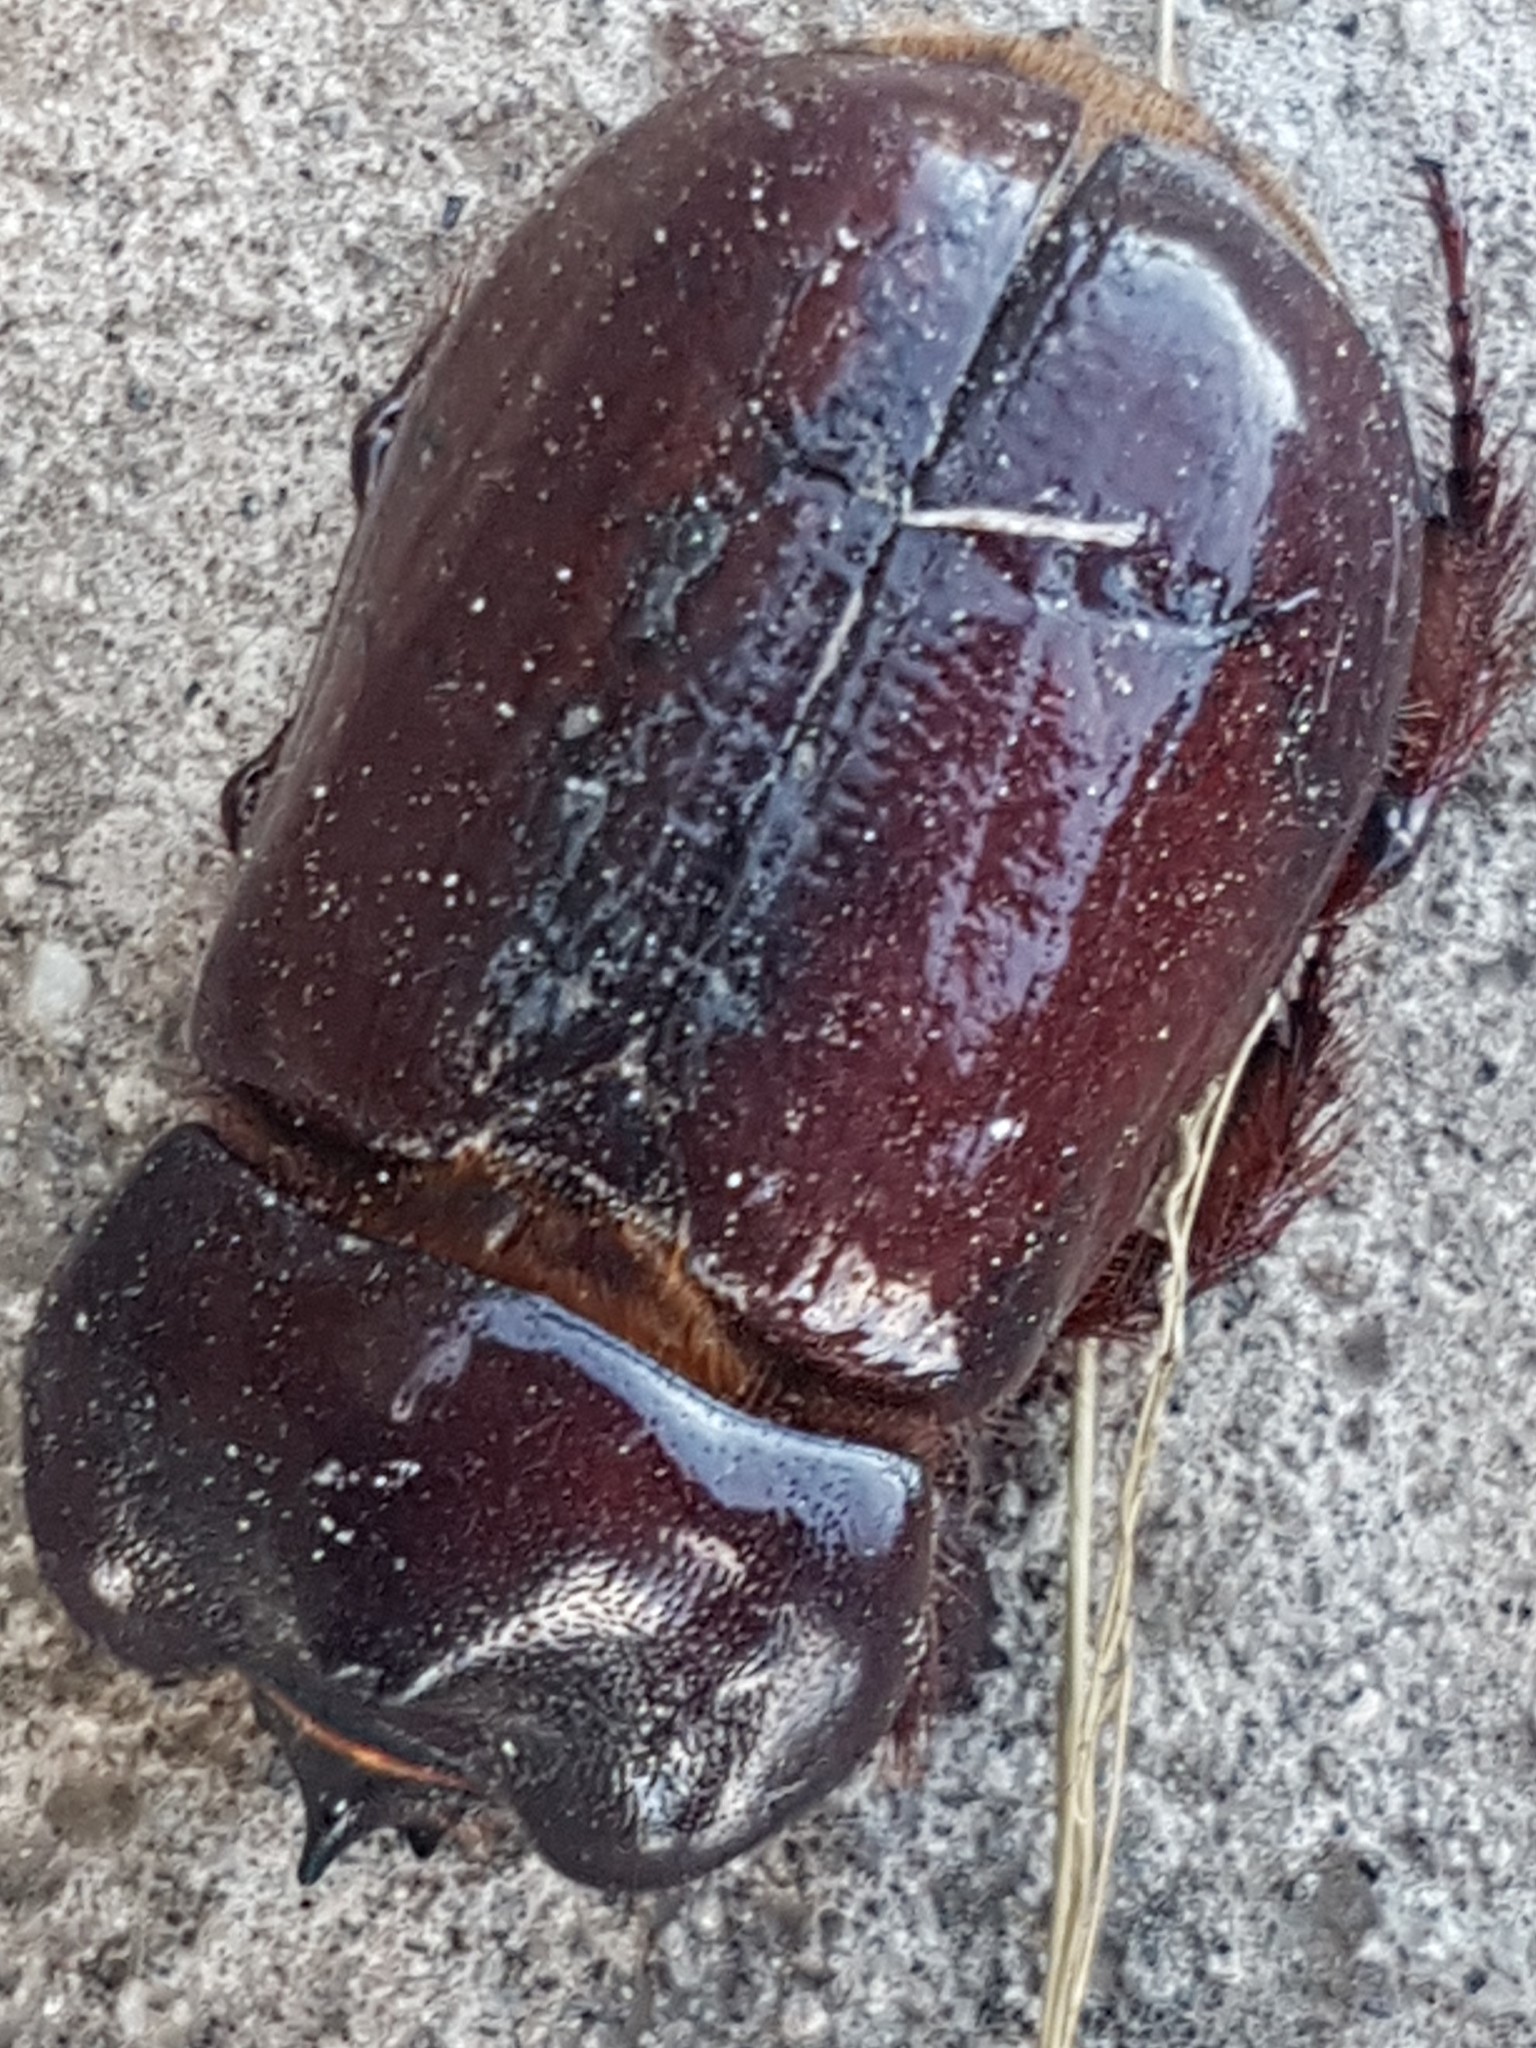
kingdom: Animalia
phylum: Arthropoda
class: Insecta
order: Coleoptera
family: Scarabaeidae
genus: Heterogomphus
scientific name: Heterogomphus bourcieri
